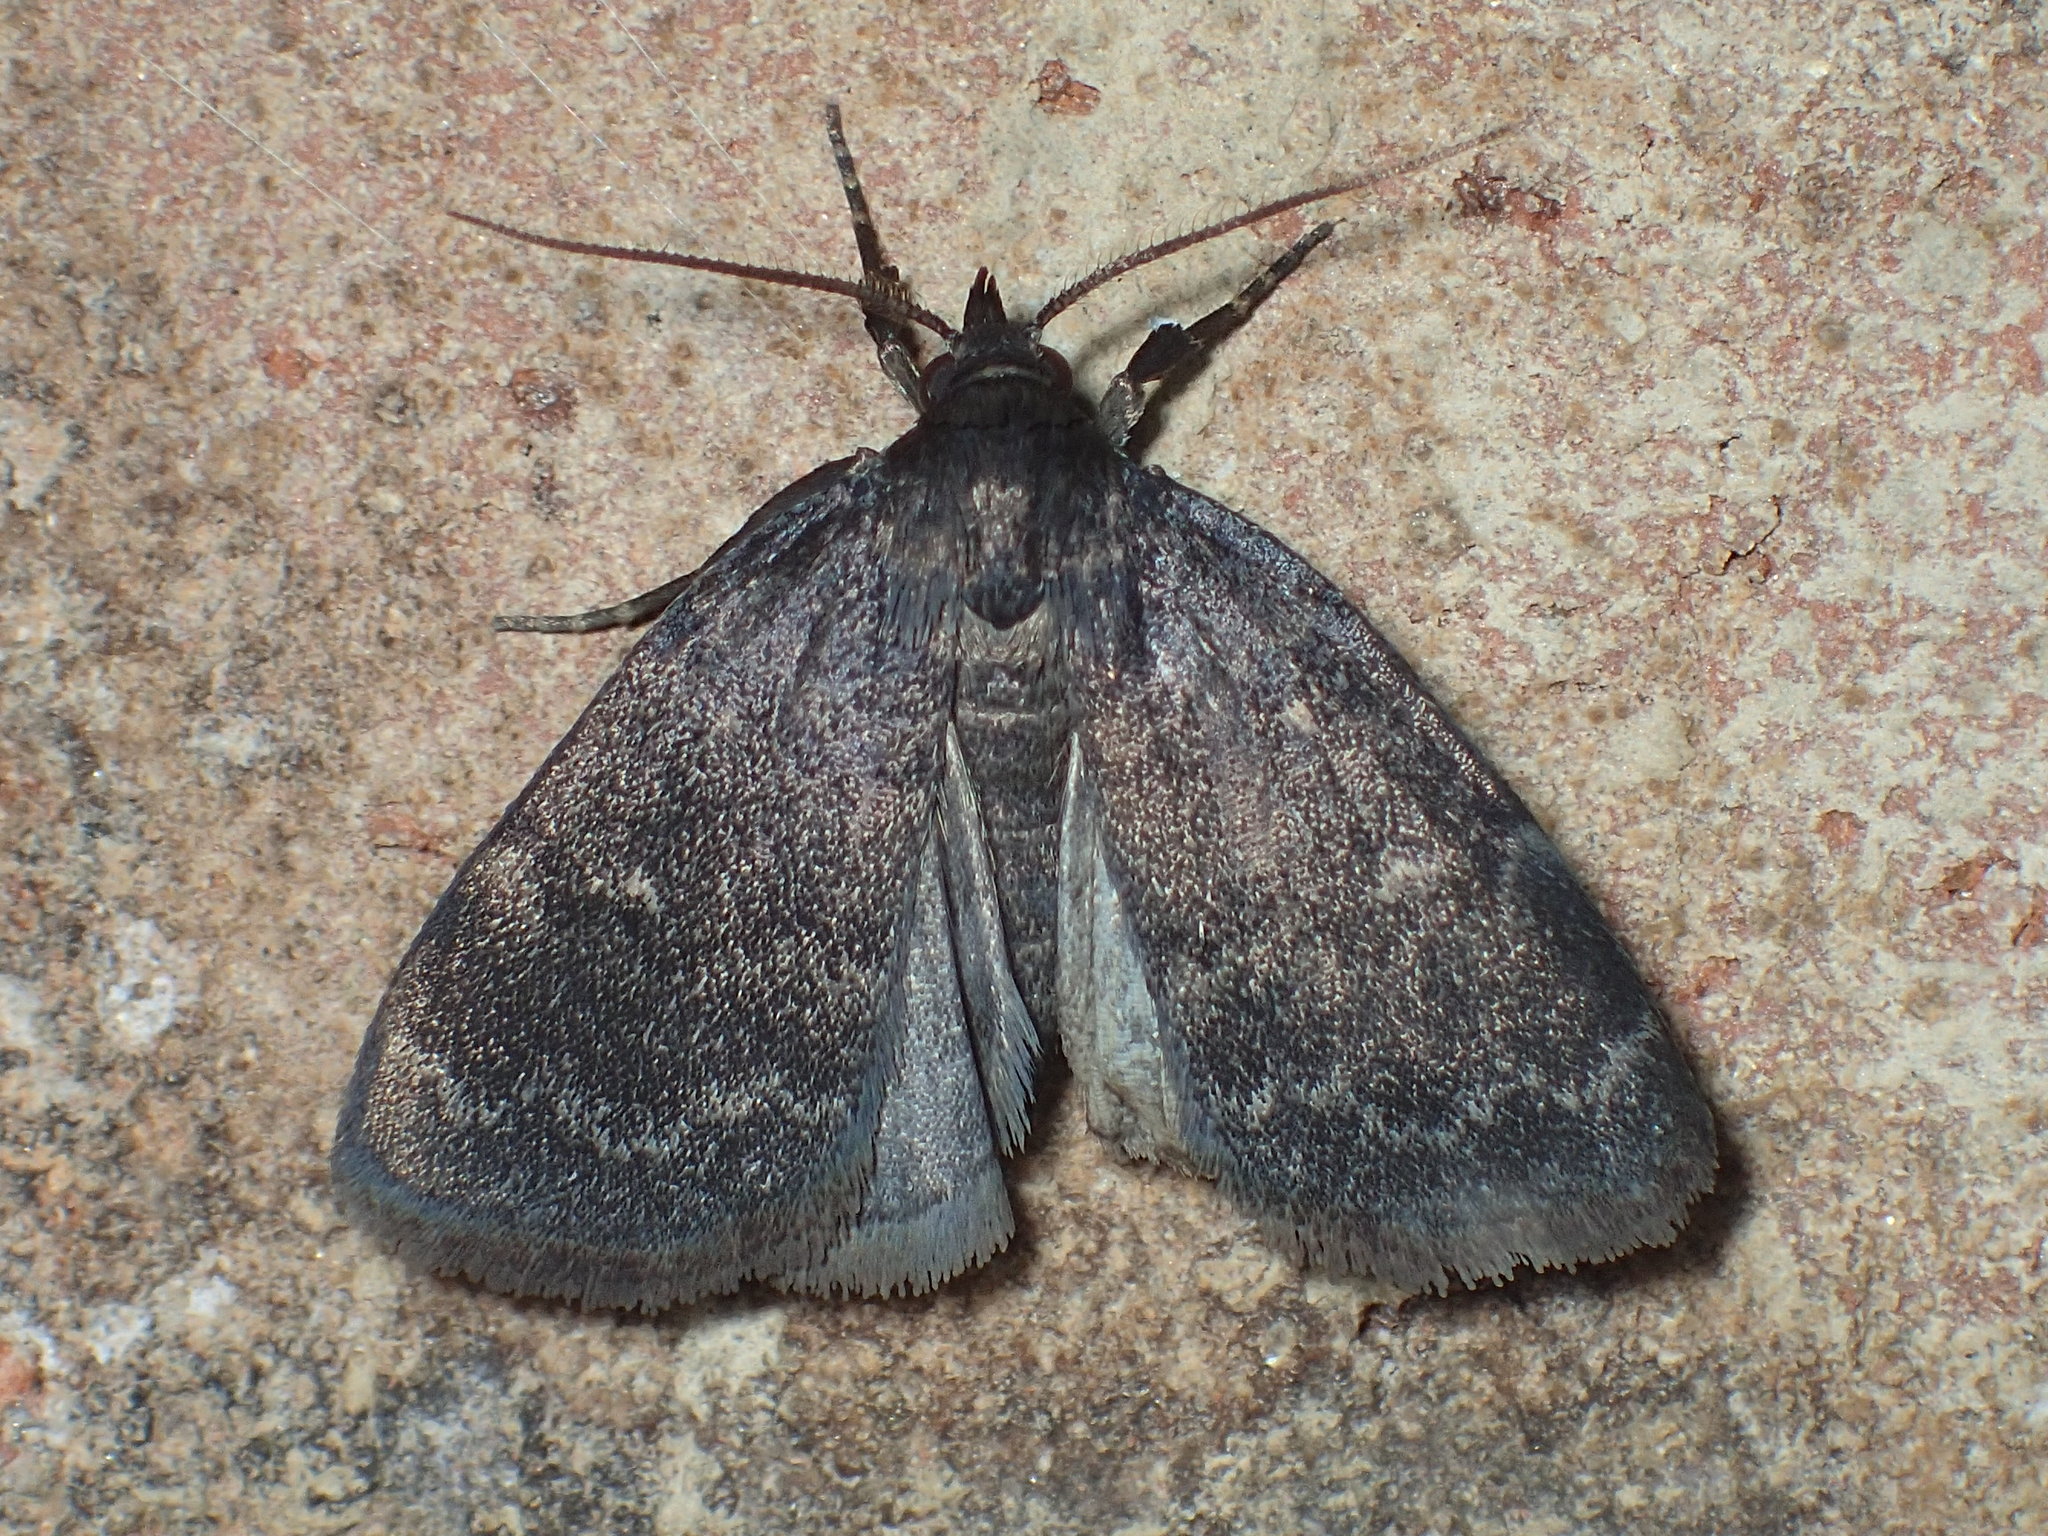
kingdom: Animalia
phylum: Arthropoda
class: Insecta
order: Lepidoptera
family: Erebidae
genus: Idia
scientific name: Idia rotundalis
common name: Rotund idia moth
